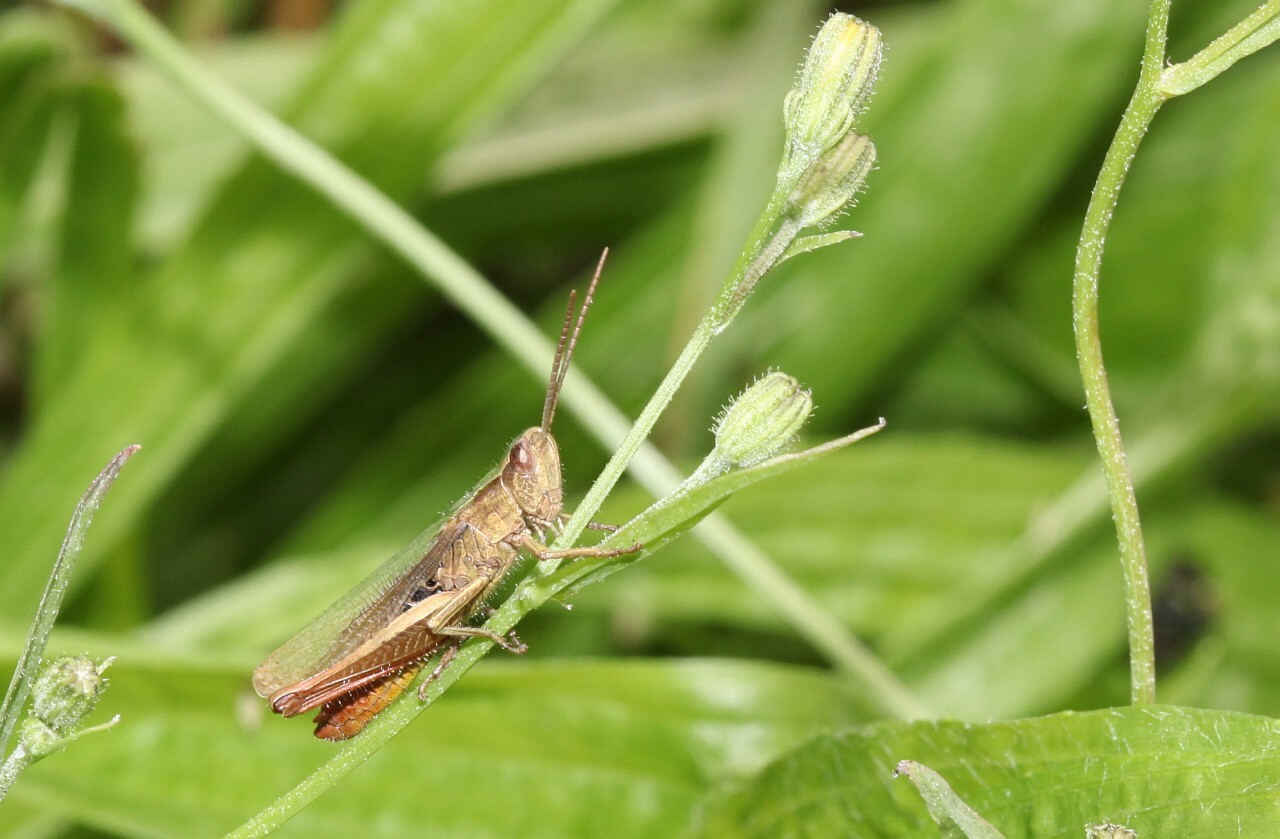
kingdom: Animalia
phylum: Arthropoda
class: Insecta
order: Orthoptera
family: Acrididae
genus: Chorthippus
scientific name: Chorthippus dorsatus
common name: Steppe grasshopper
